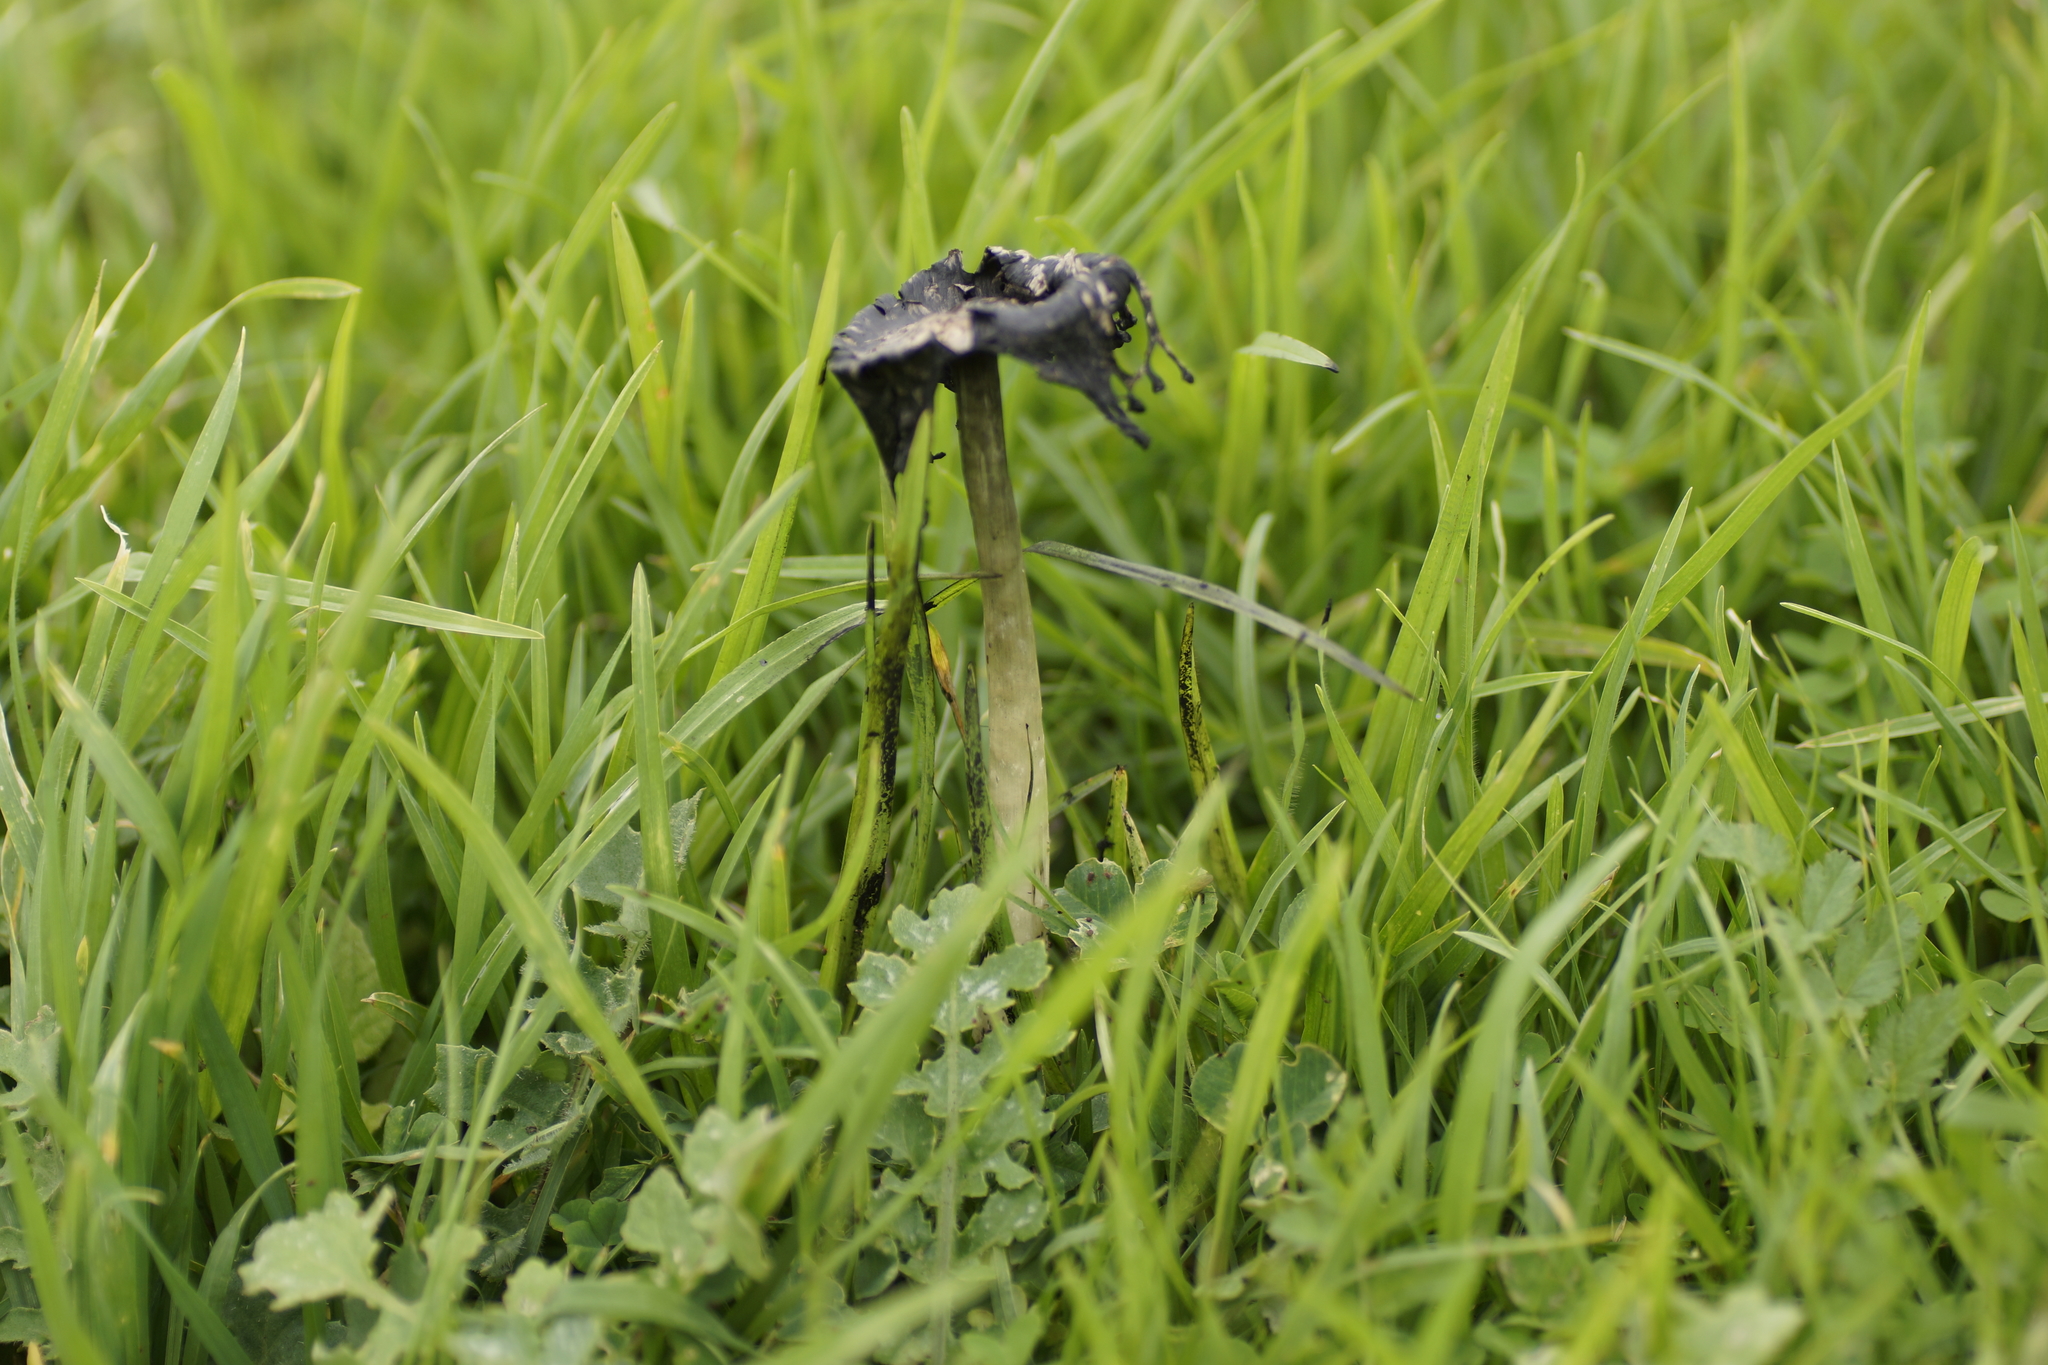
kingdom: Fungi
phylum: Basidiomycota
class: Agaricomycetes
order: Agaricales
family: Psathyrellaceae
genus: Coprinopsis
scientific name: Coprinopsis atramentaria
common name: Common ink-cap
